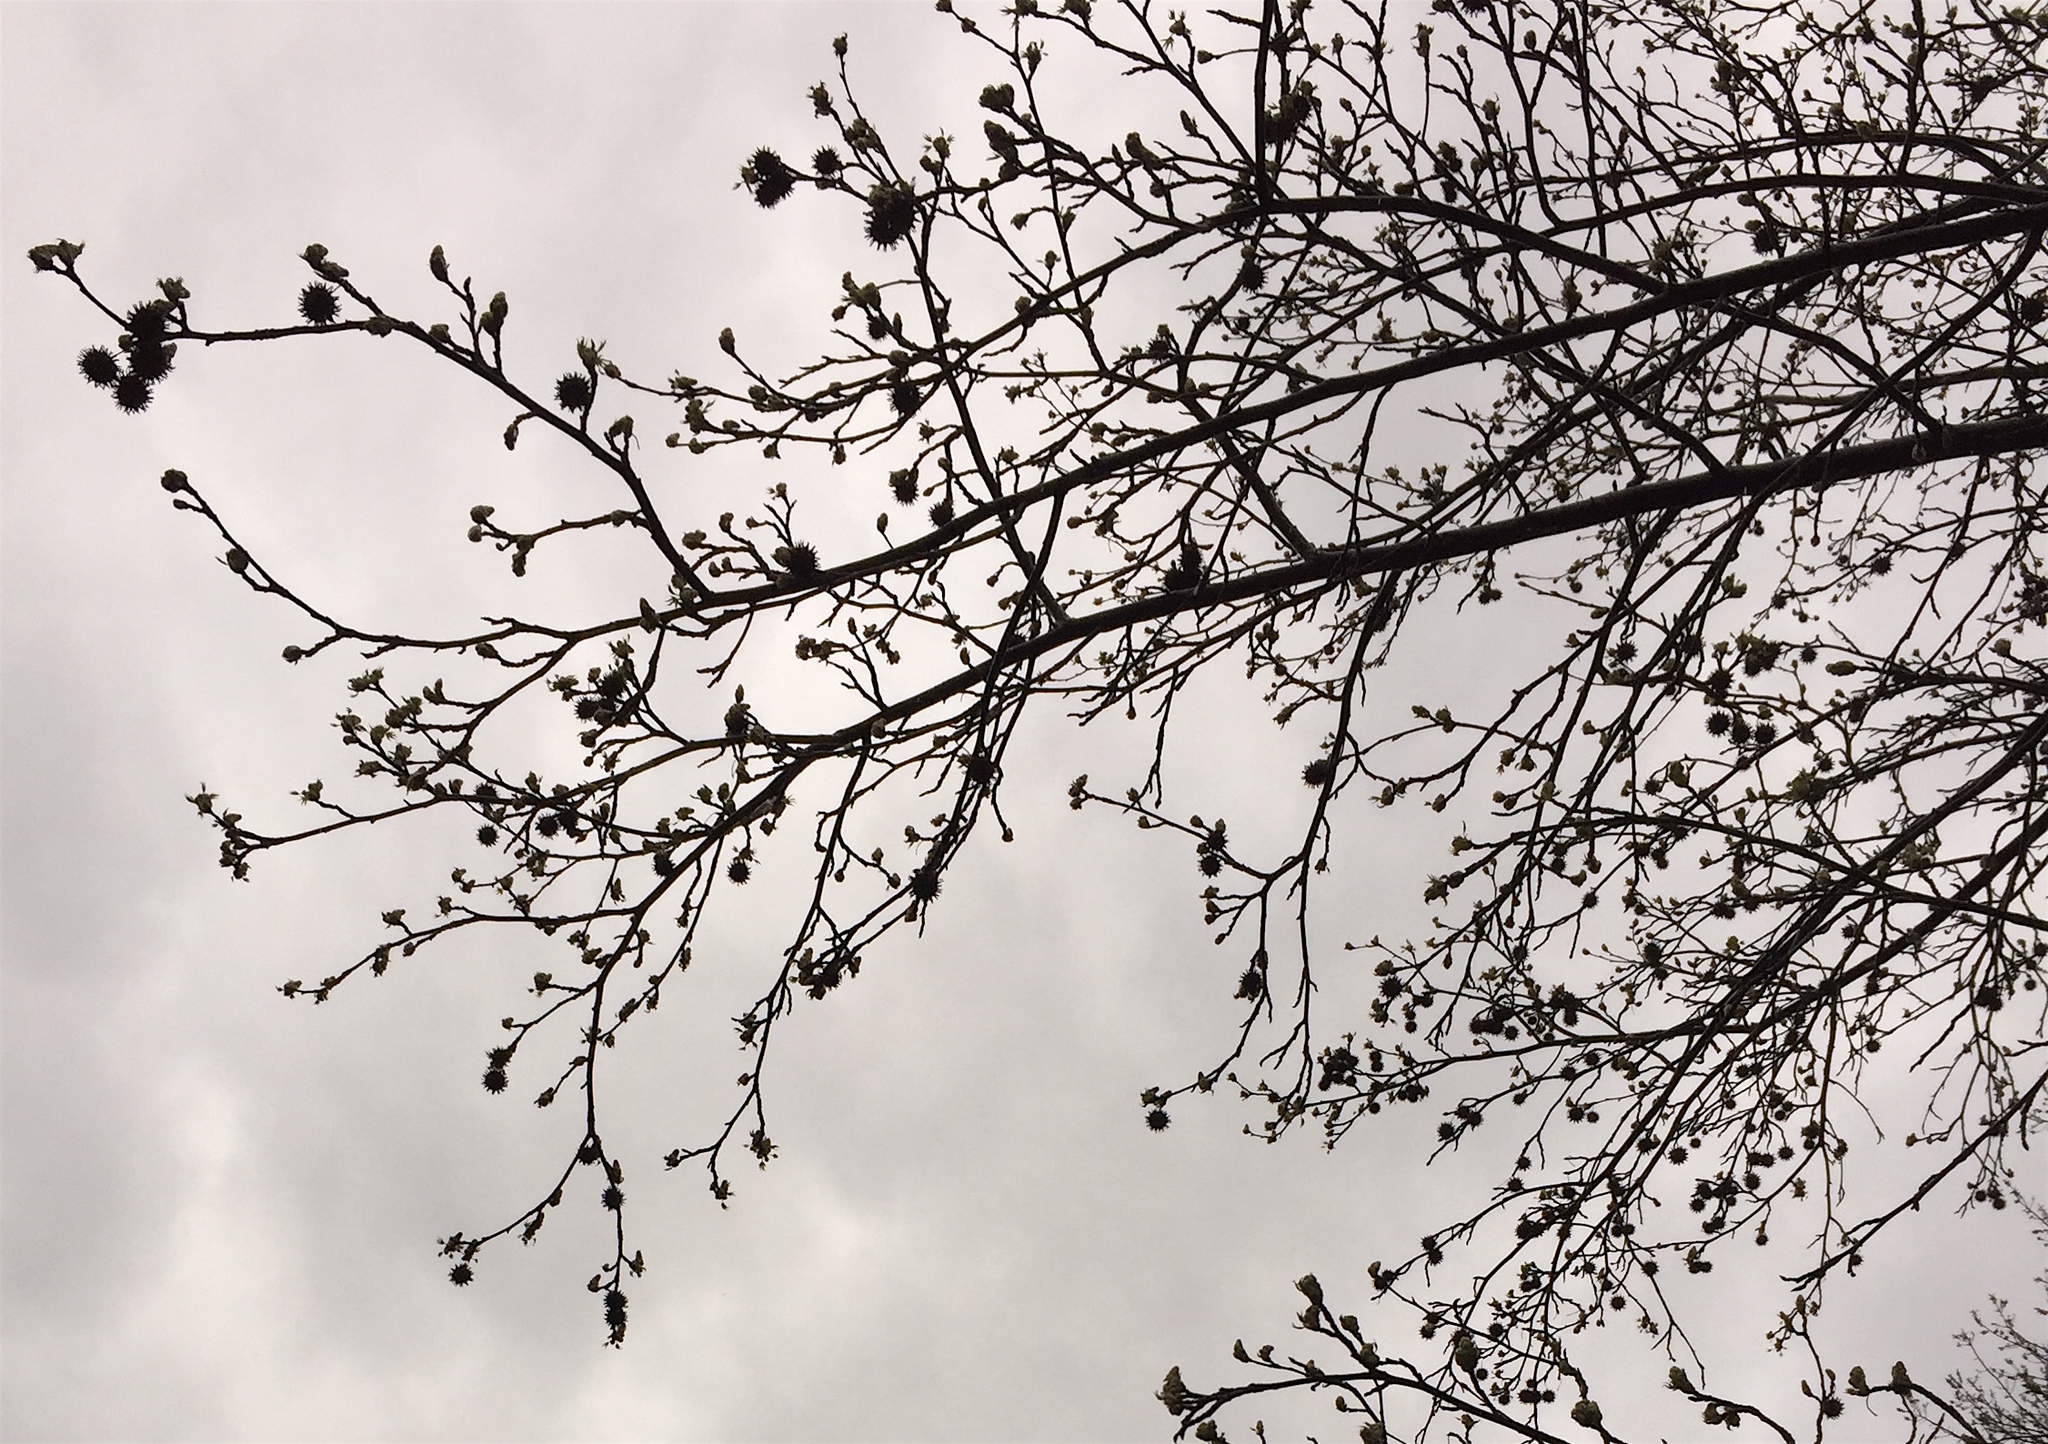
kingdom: Plantae
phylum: Tracheophyta
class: Magnoliopsida
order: Saxifragales
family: Altingiaceae
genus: Liquidambar
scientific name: Liquidambar styraciflua
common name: Sweet gum
